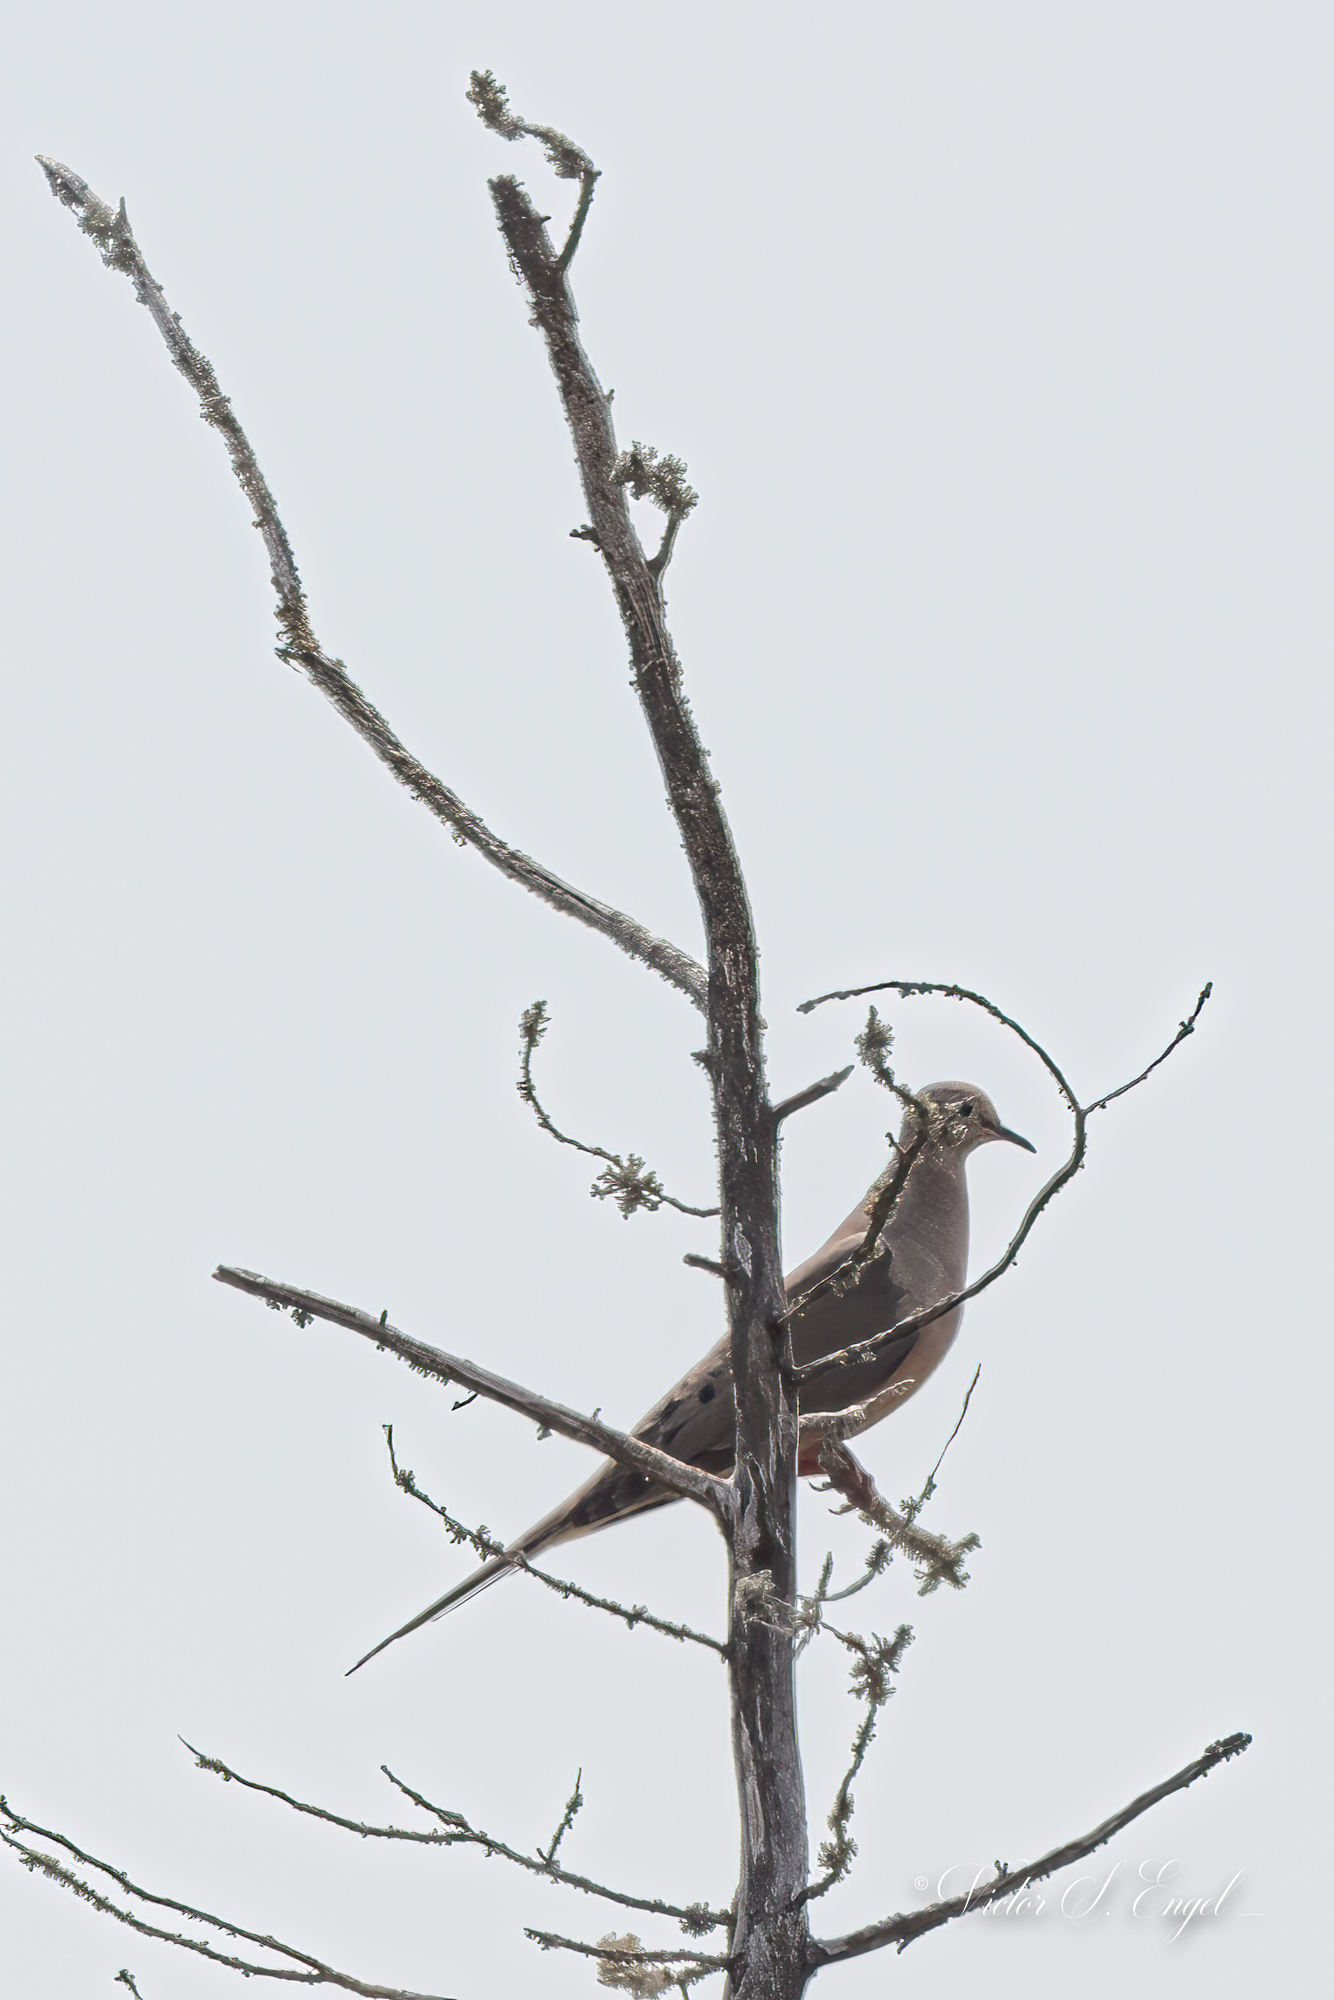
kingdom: Animalia
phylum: Chordata
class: Aves
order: Columbiformes
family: Columbidae
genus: Zenaida
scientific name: Zenaida macroura
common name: Mourning dove
